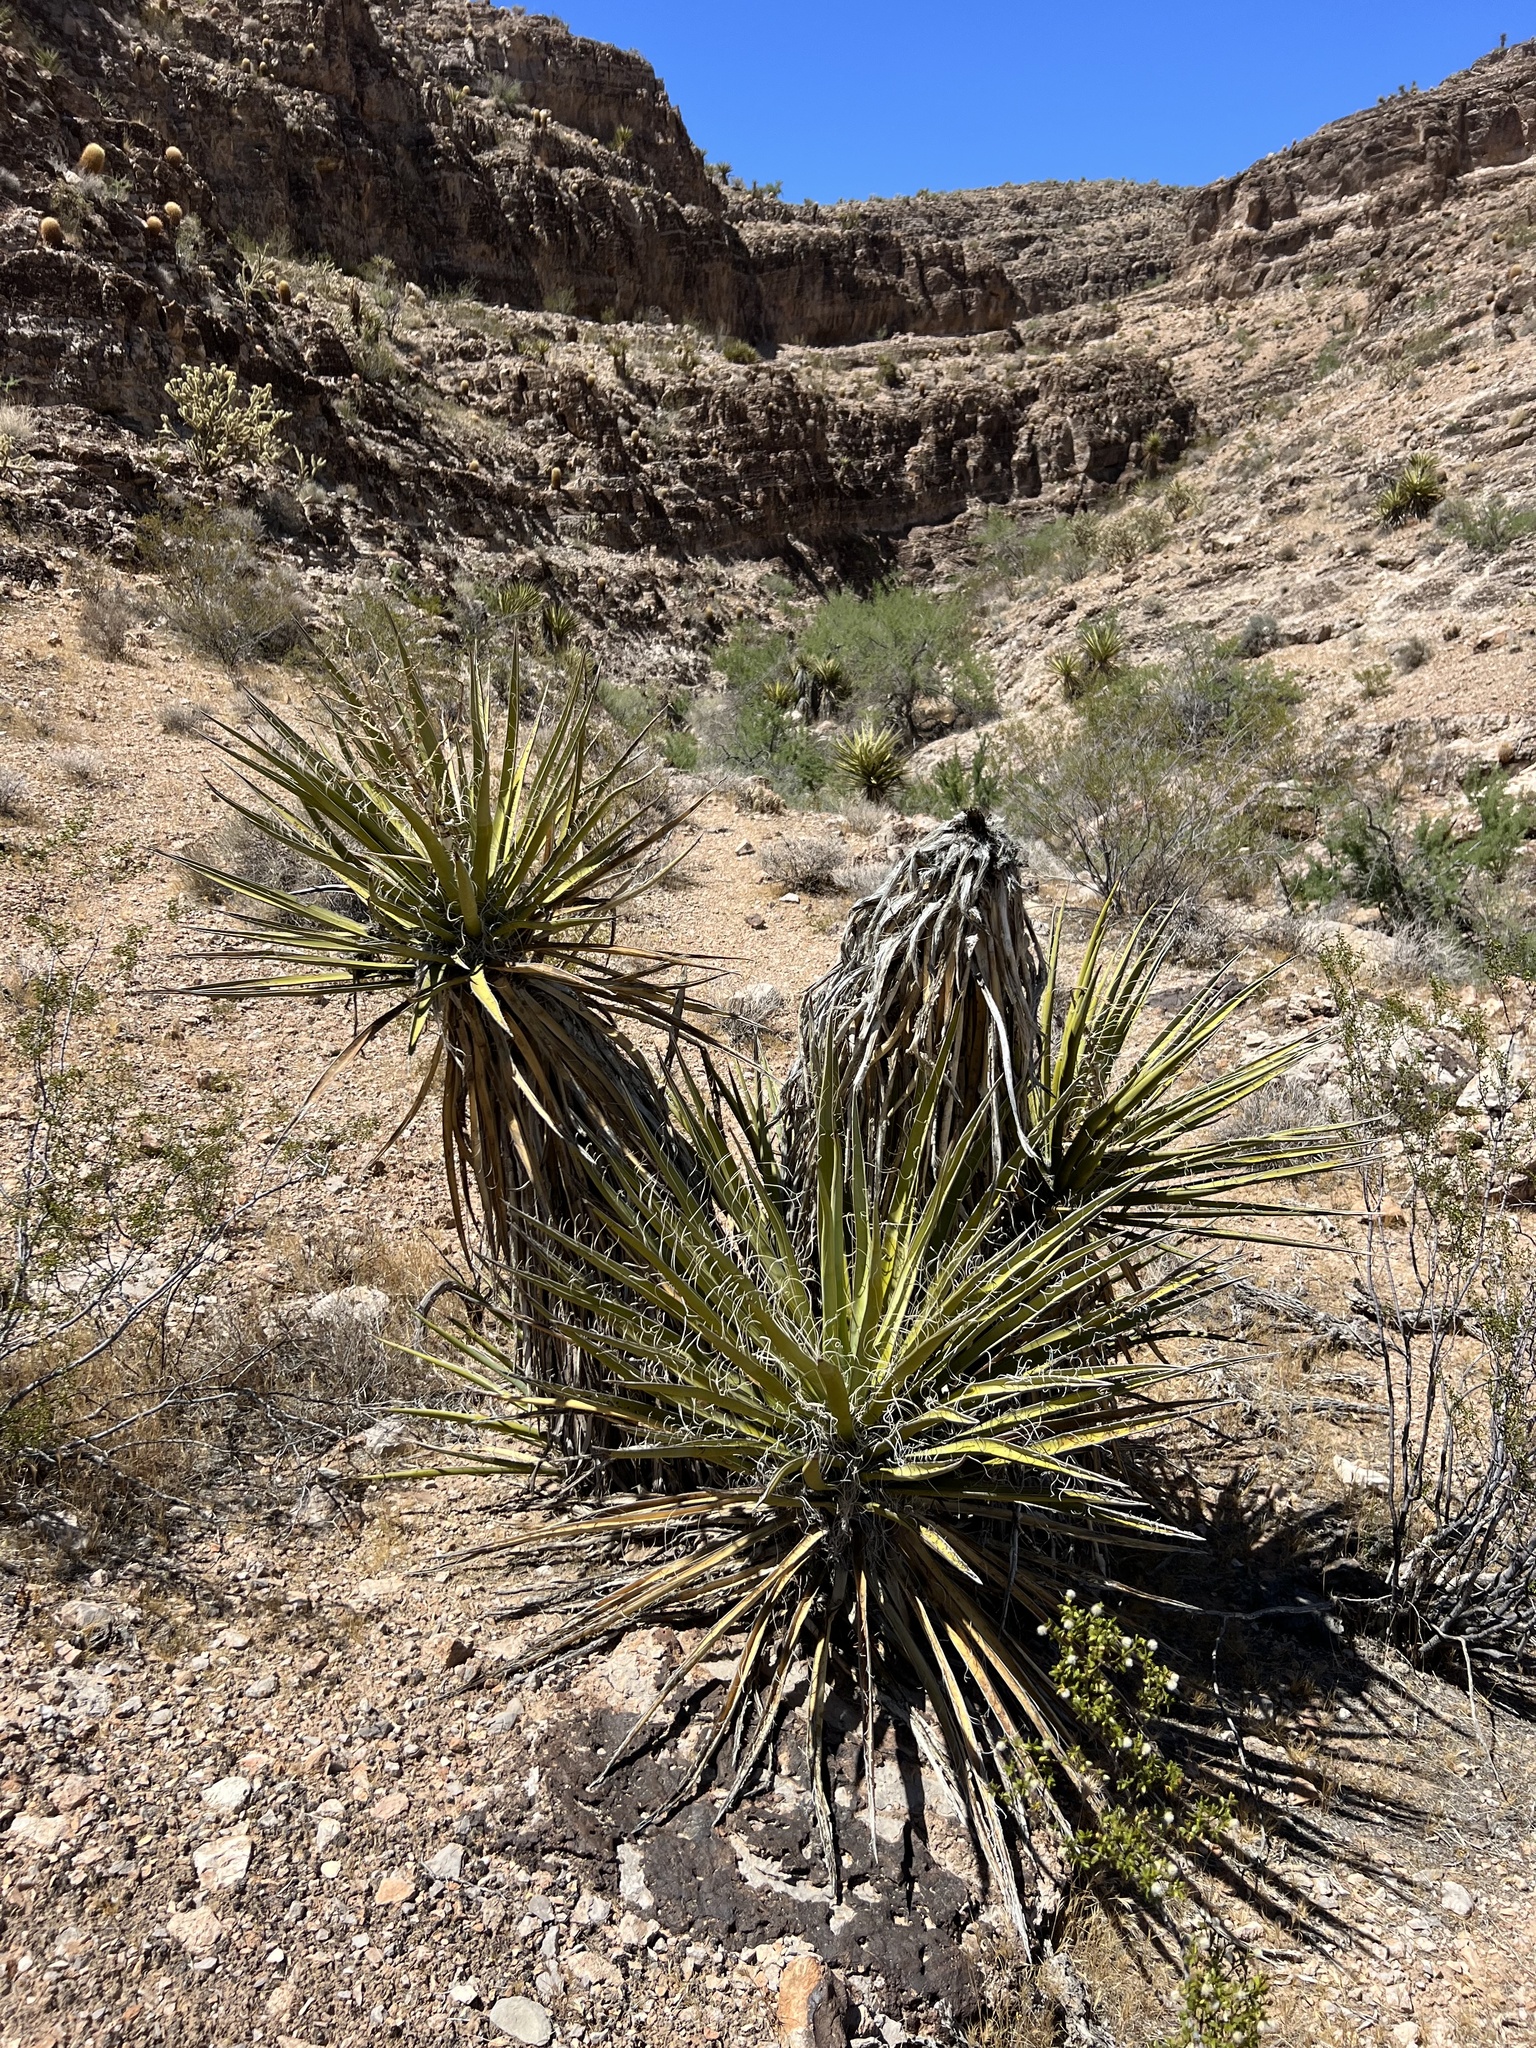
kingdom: Plantae
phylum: Tracheophyta
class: Liliopsida
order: Asparagales
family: Asparagaceae
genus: Yucca
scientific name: Yucca schidigera
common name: Mojave yucca
